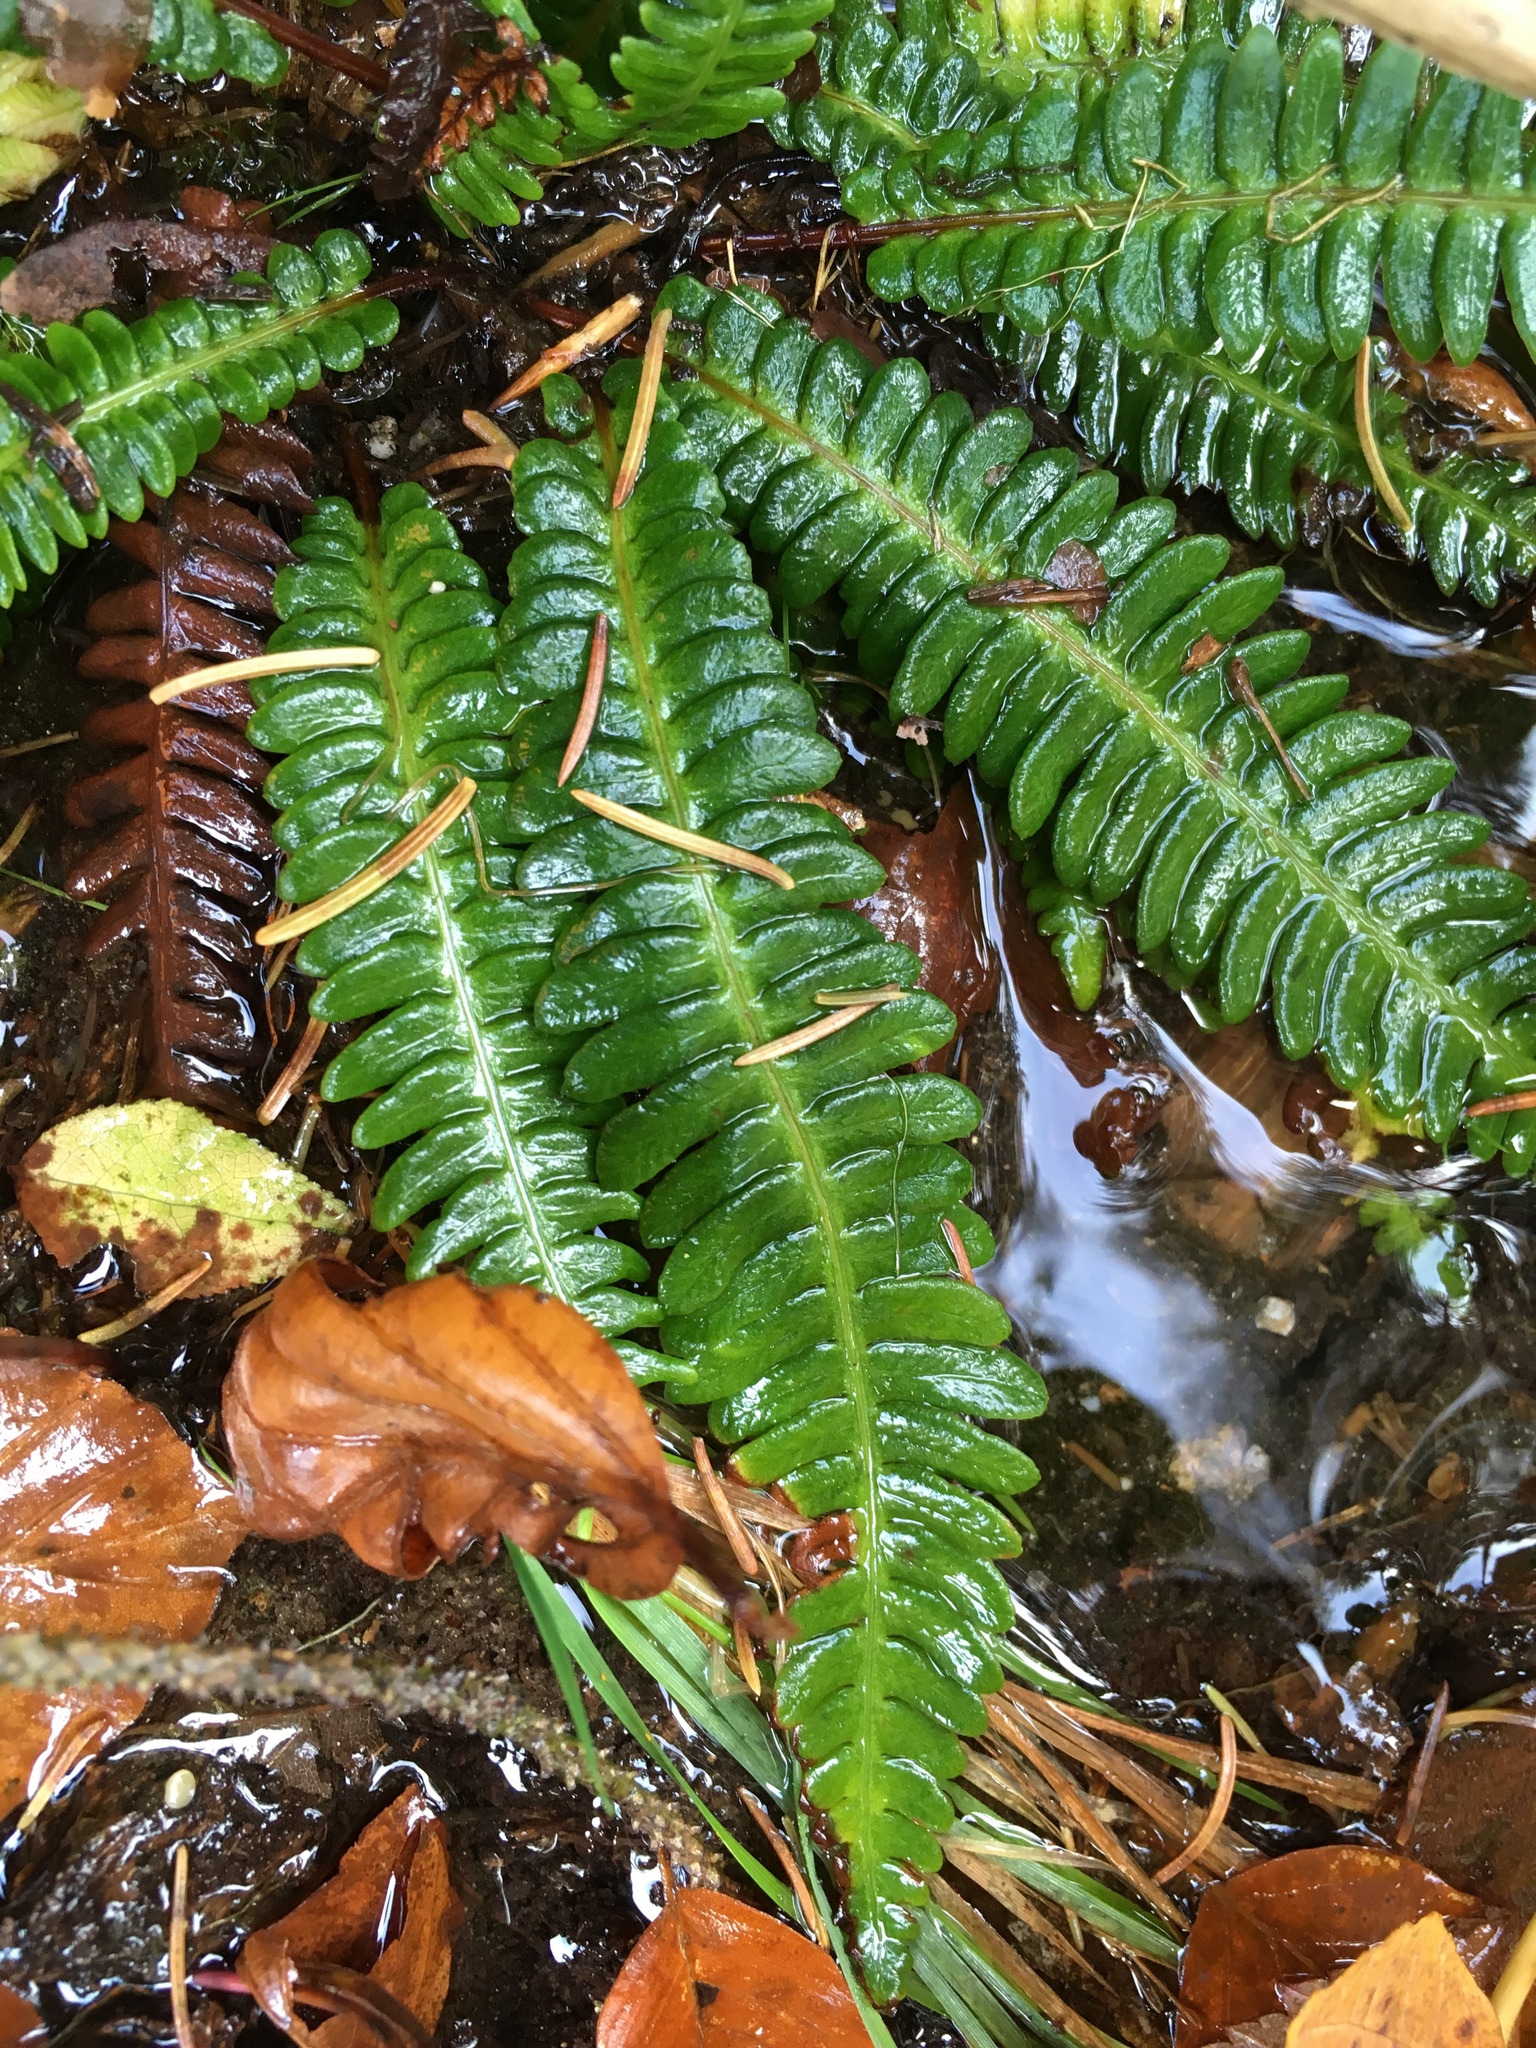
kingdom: Plantae
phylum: Tracheophyta
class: Polypodiopsida
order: Polypodiales
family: Blechnaceae
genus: Struthiopteris
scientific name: Struthiopteris spicant
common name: Deer fern
